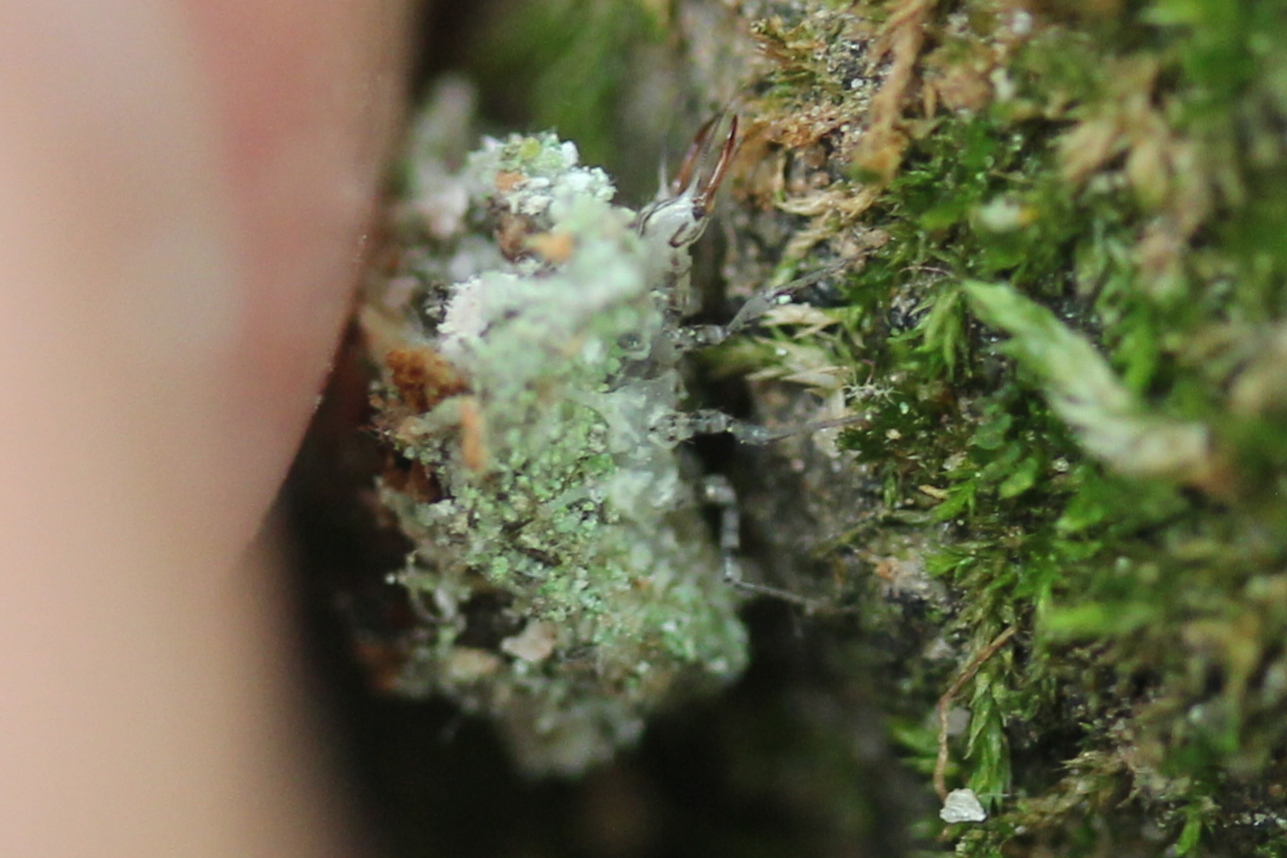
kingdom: Animalia
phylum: Arthropoda
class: Insecta
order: Neuroptera
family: Chrysopidae
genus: Leucochrysa
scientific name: Leucochrysa pavida
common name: Lichen-carrying green lacewing
